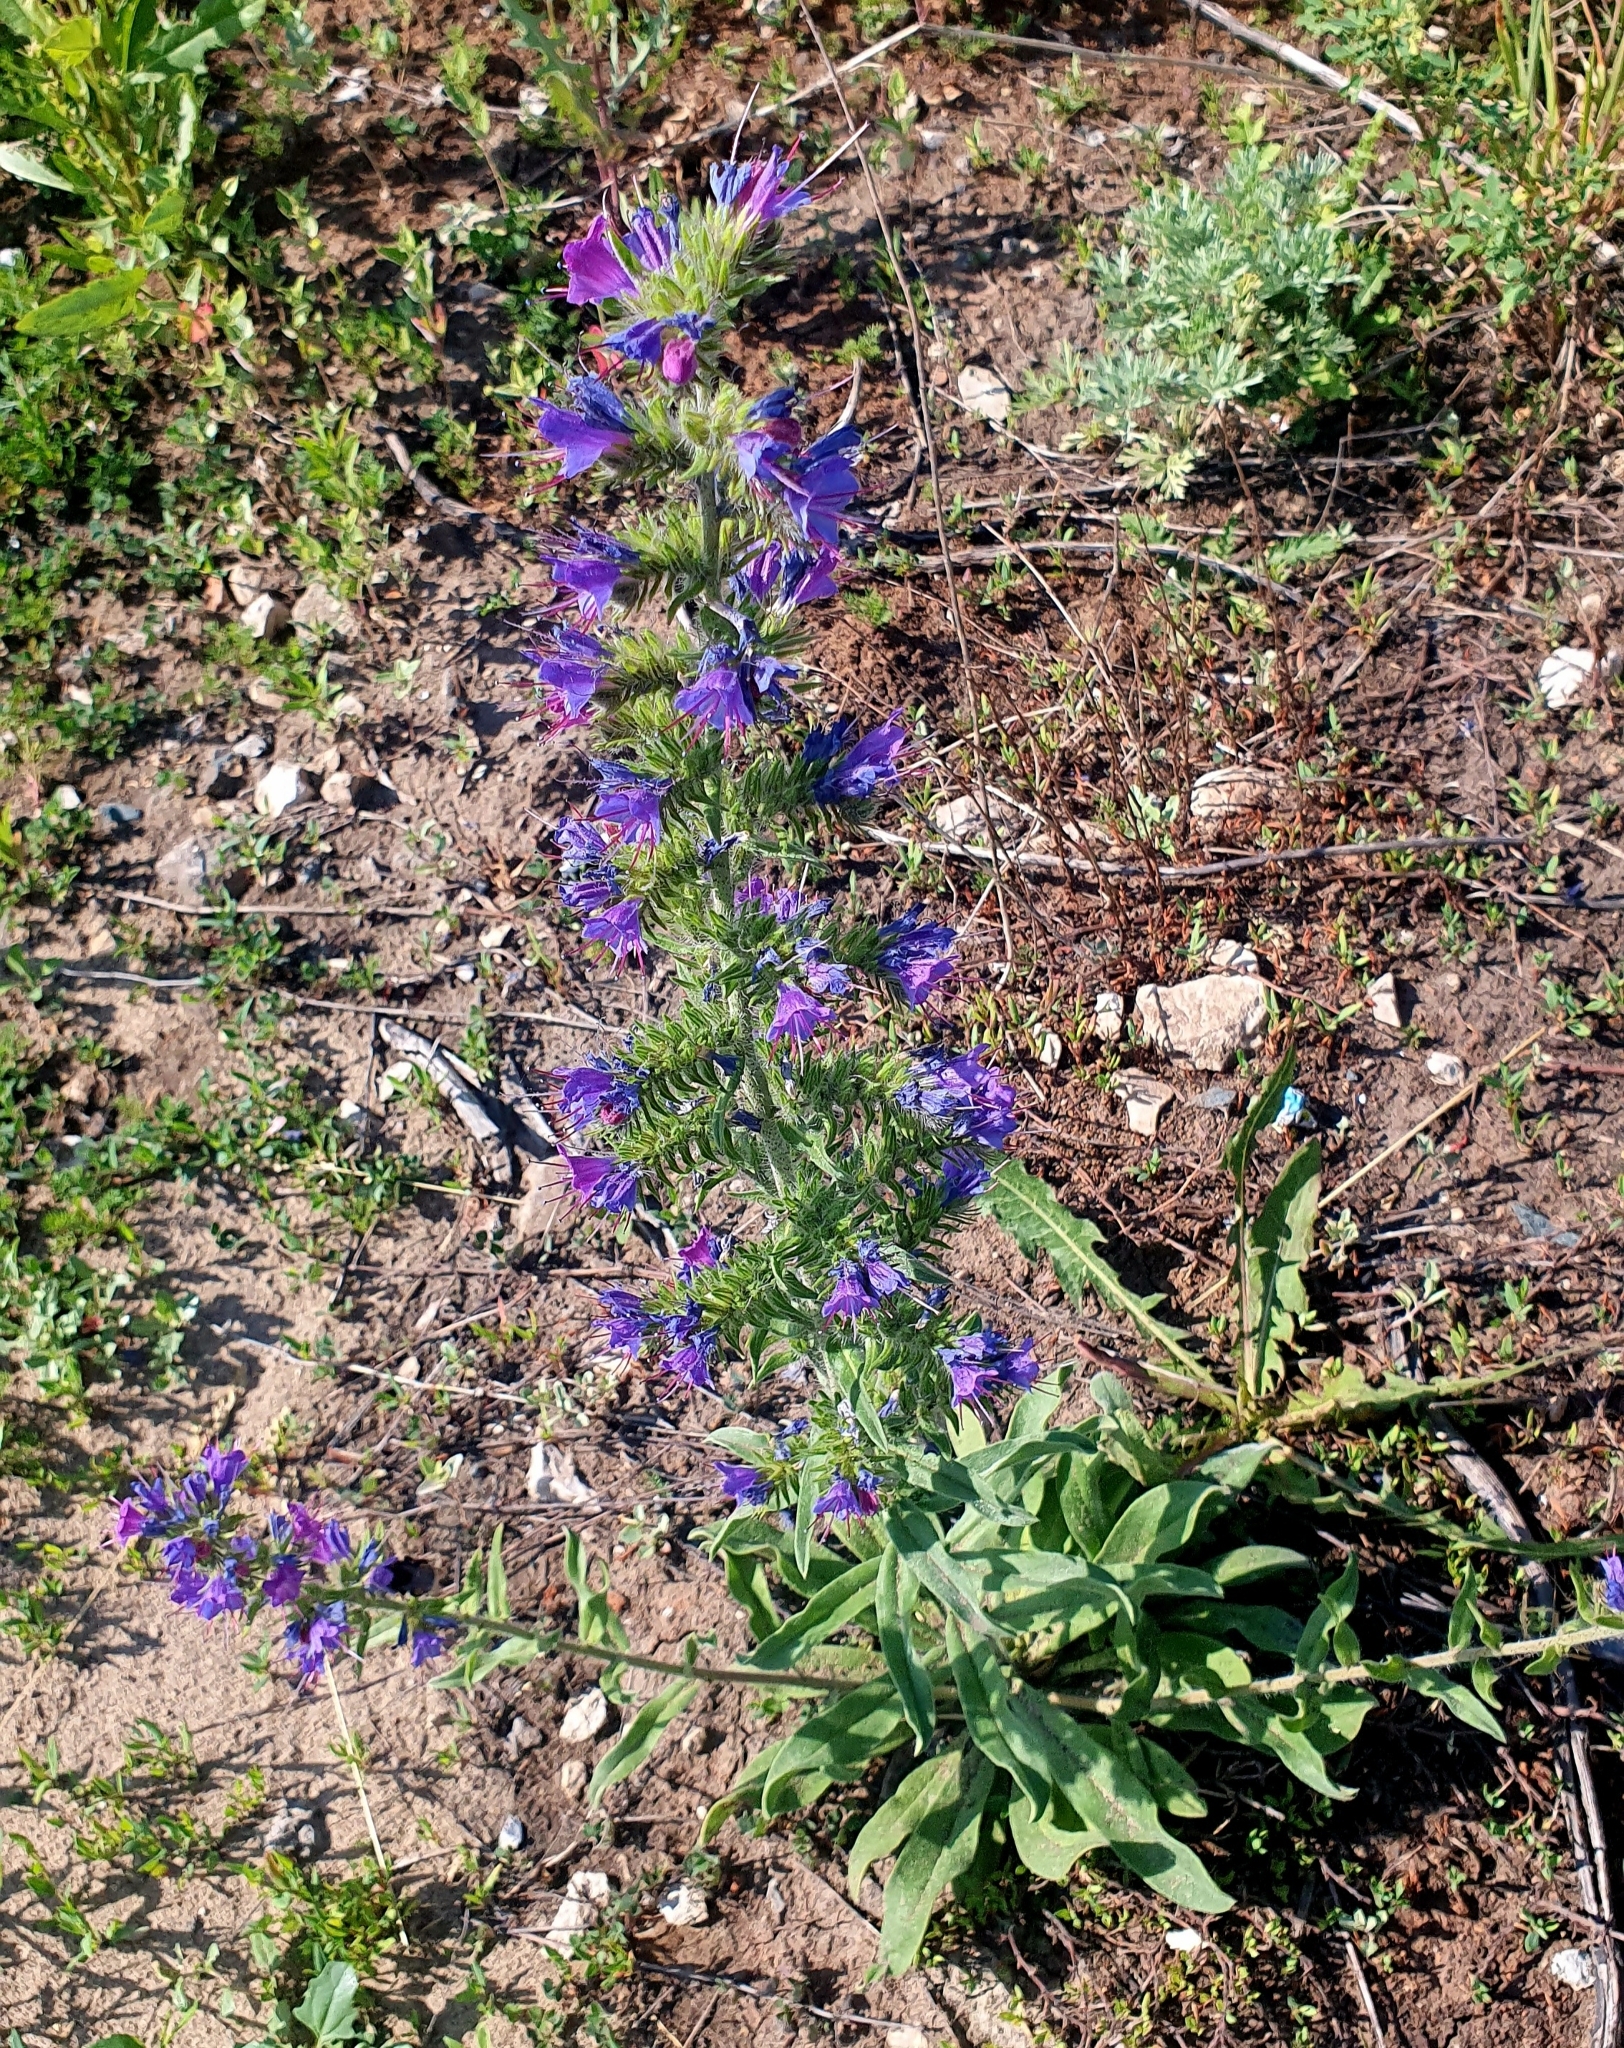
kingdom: Plantae
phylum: Tracheophyta
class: Magnoliopsida
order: Boraginales
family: Boraginaceae
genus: Echium
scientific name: Echium vulgare
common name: Common viper's bugloss
